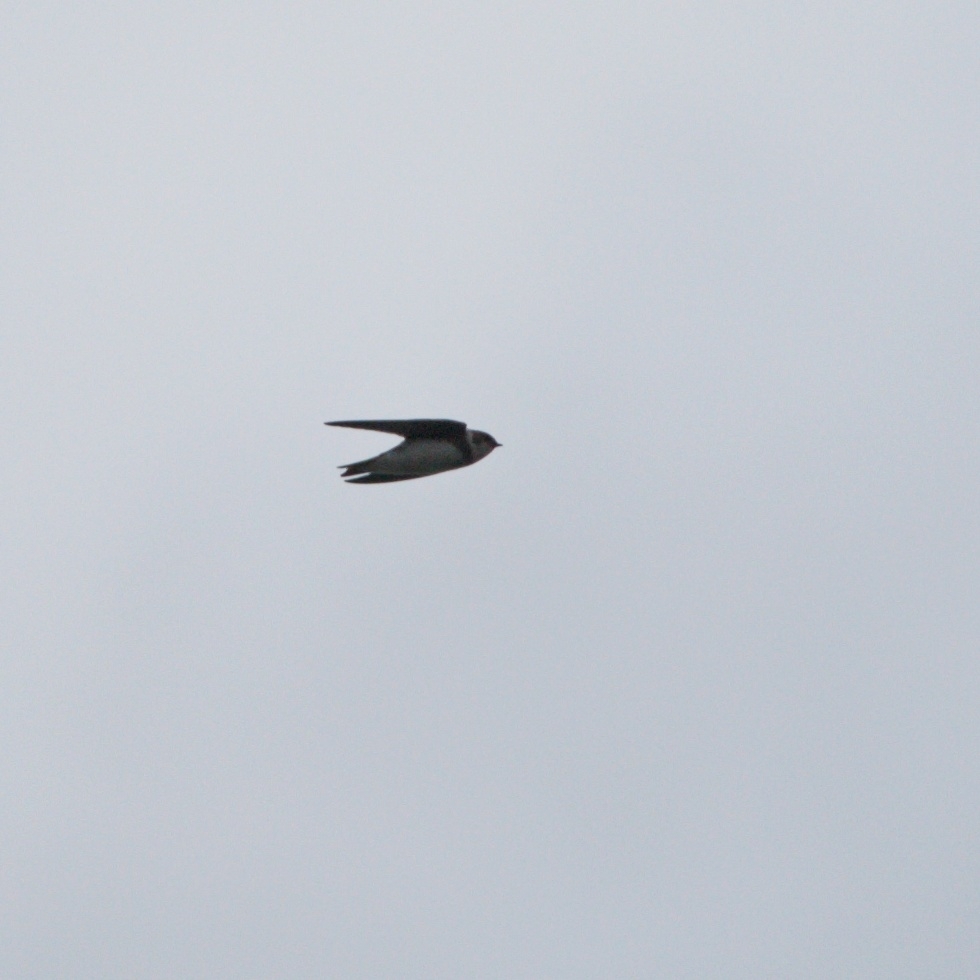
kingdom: Animalia
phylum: Chordata
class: Aves
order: Passeriformes
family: Hirundinidae
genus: Riparia
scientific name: Riparia riparia
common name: Sand martin
